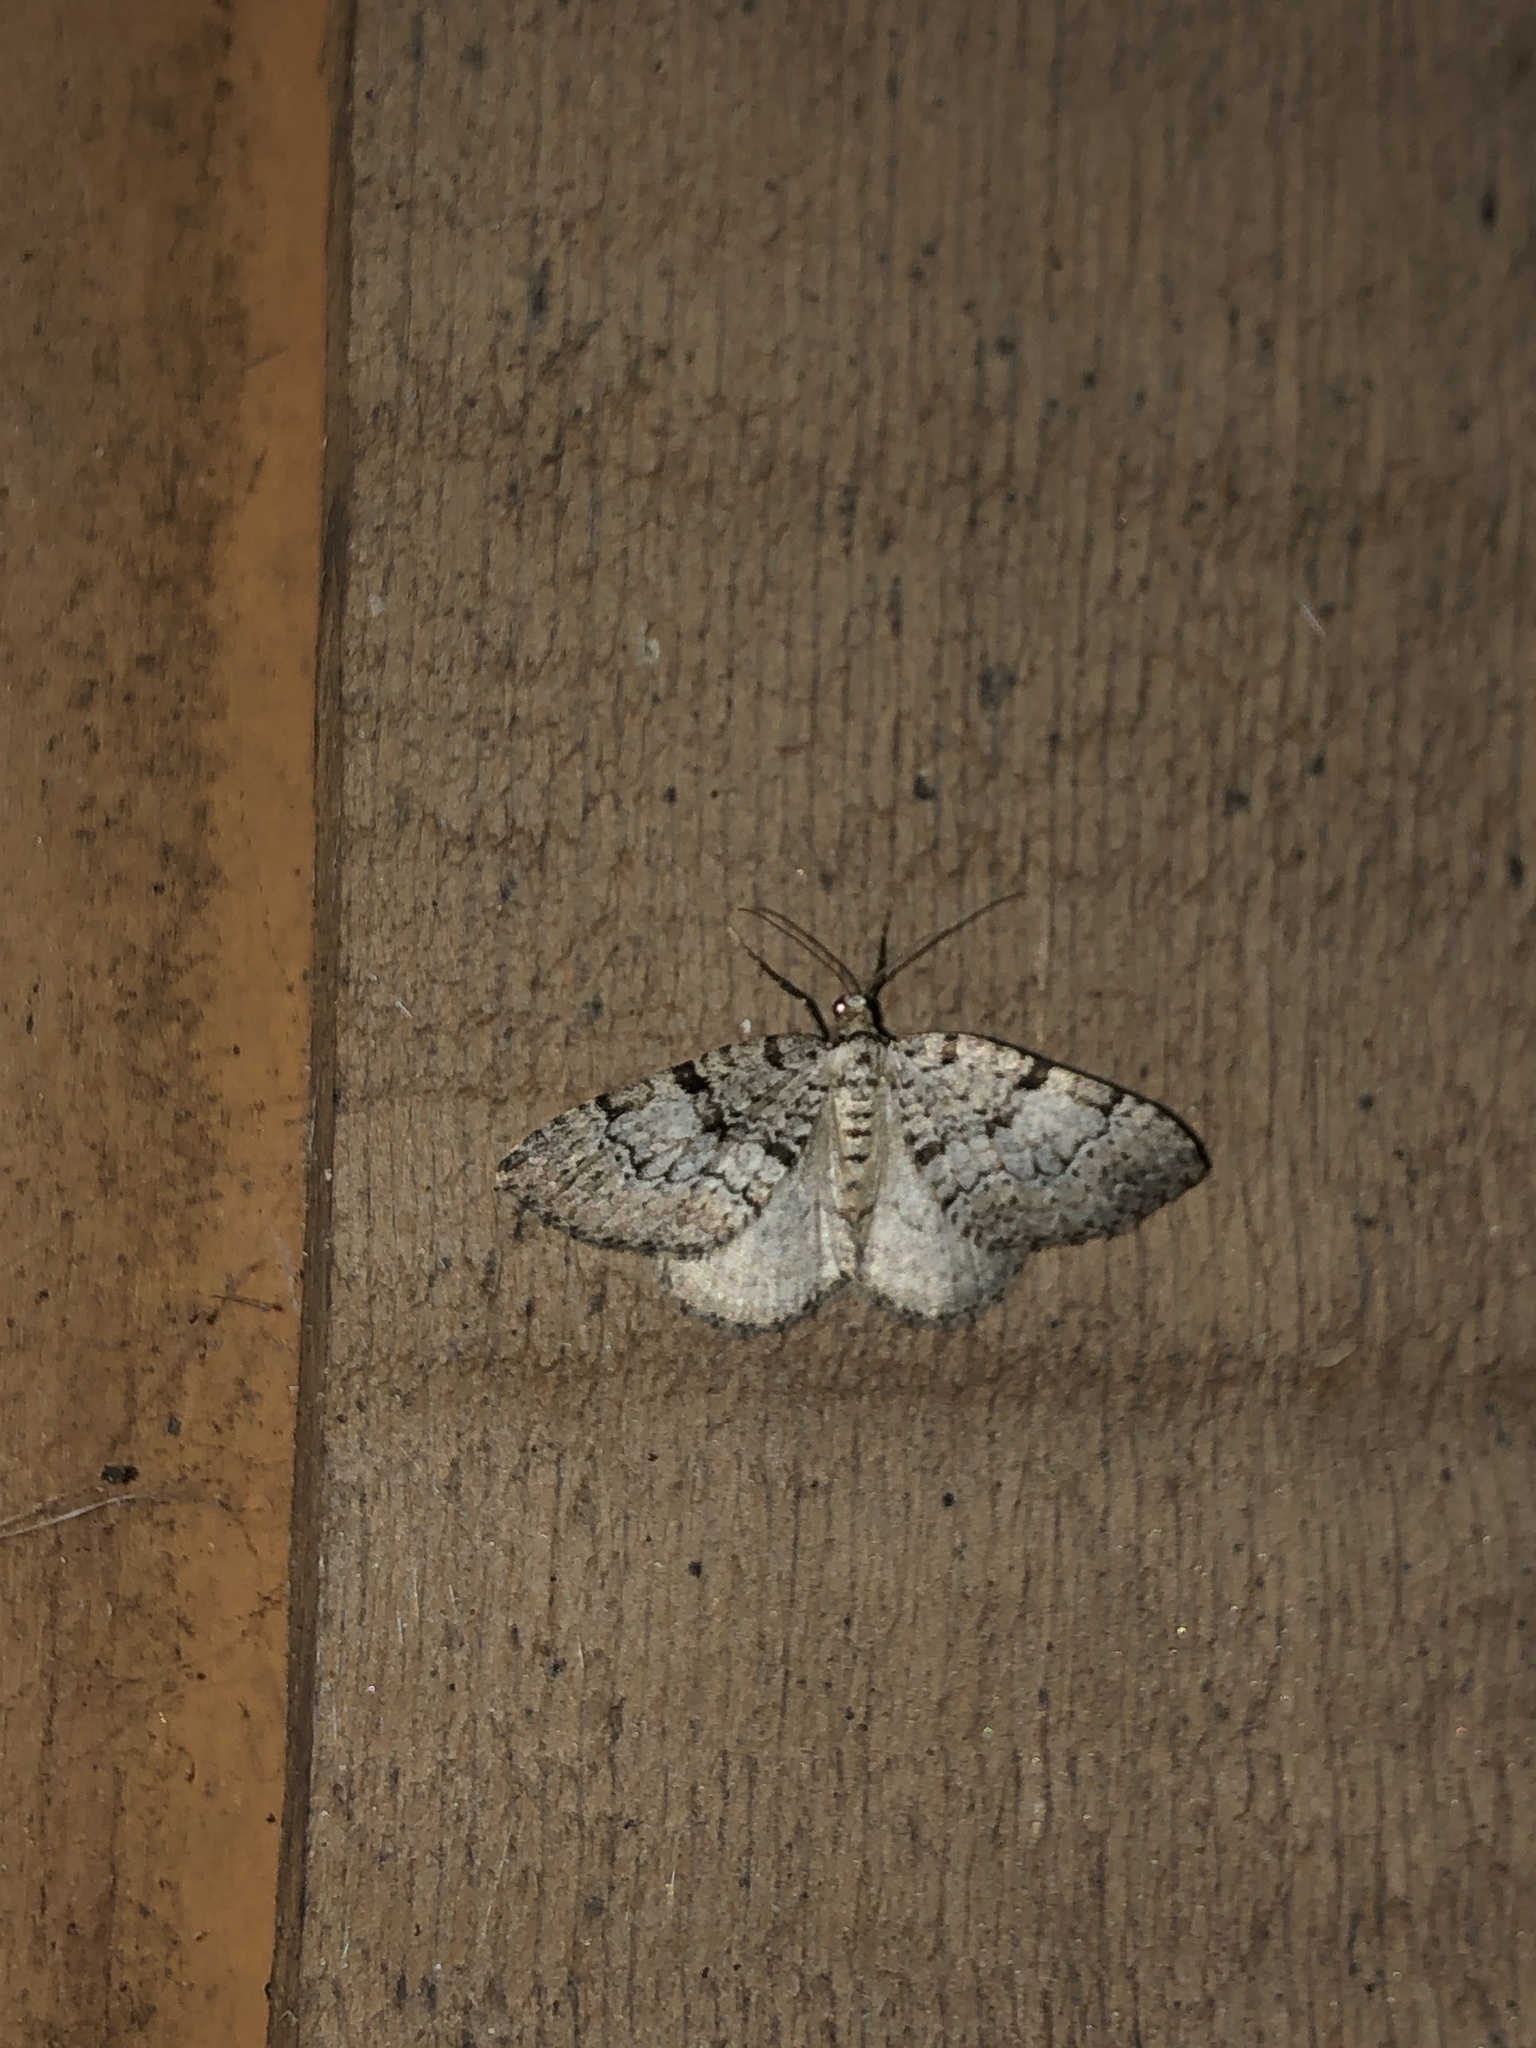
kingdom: Animalia
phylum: Arthropoda
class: Insecta
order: Lepidoptera
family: Geometridae
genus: Perizoma
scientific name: Perizoma curvilinea
